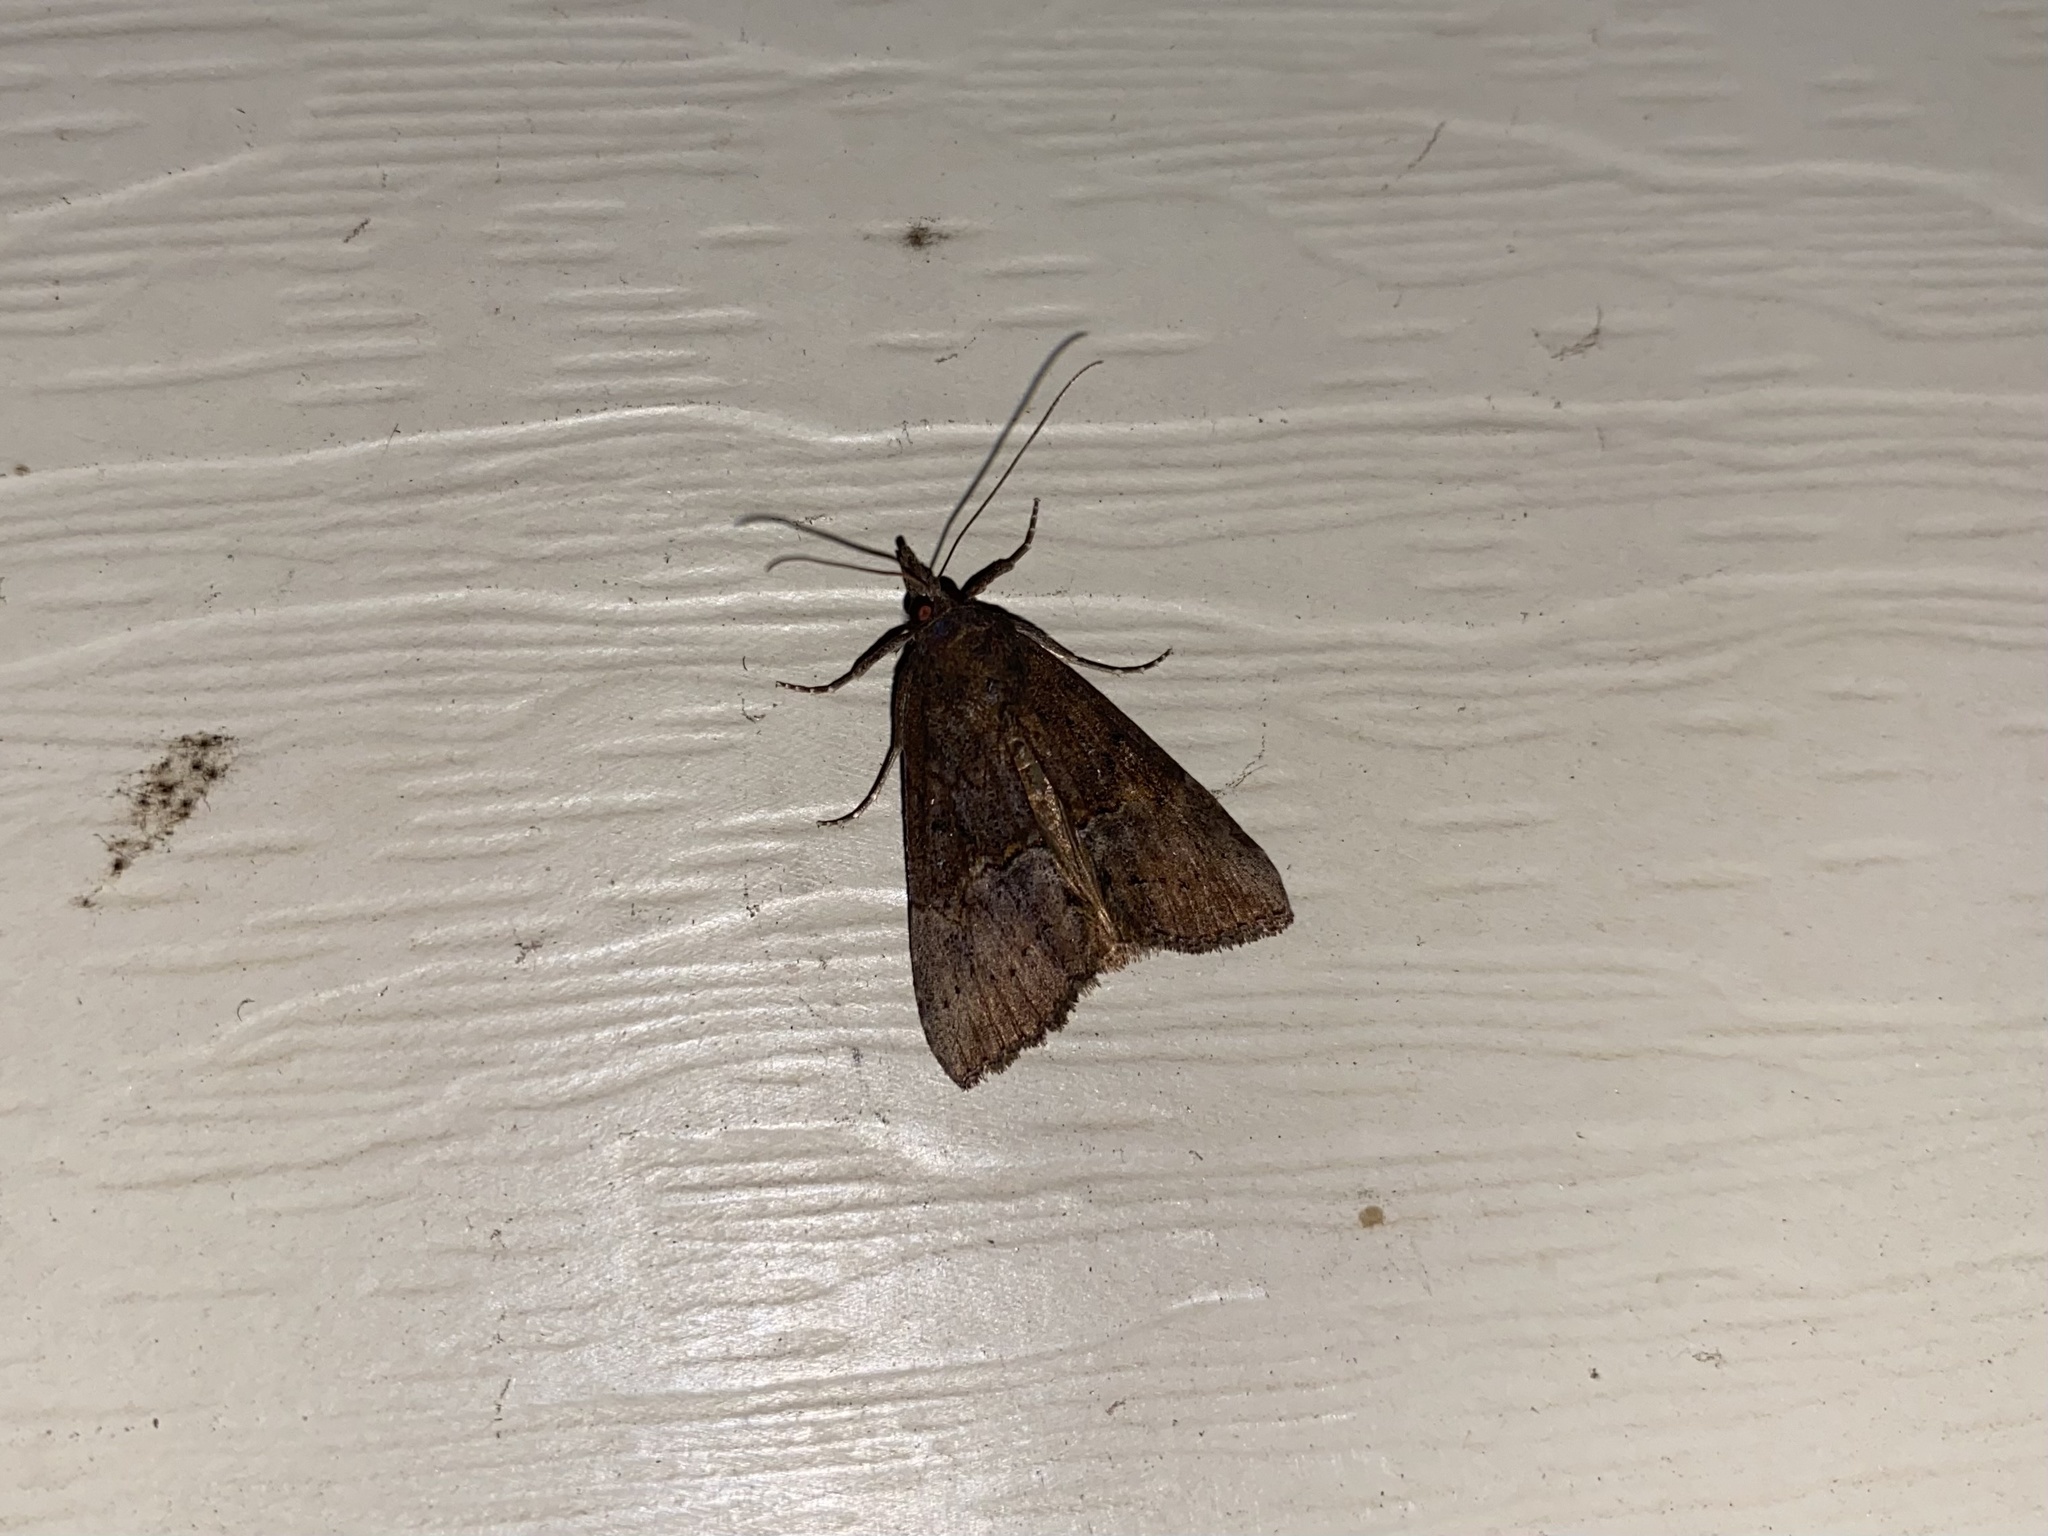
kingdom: Animalia
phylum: Arthropoda
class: Insecta
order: Lepidoptera
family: Erebidae
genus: Hypena
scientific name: Hypena scabra
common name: Green cloverworm
